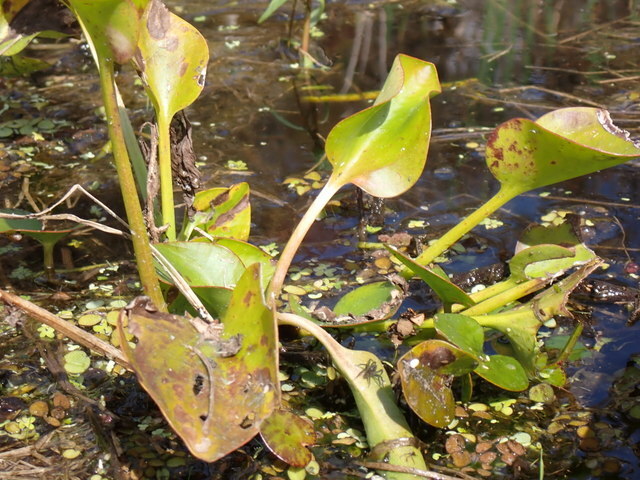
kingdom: Plantae
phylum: Tracheophyta
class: Liliopsida
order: Alismatales
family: Hydrocharitaceae
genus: Hydrocharis
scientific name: Hydrocharis spongia
